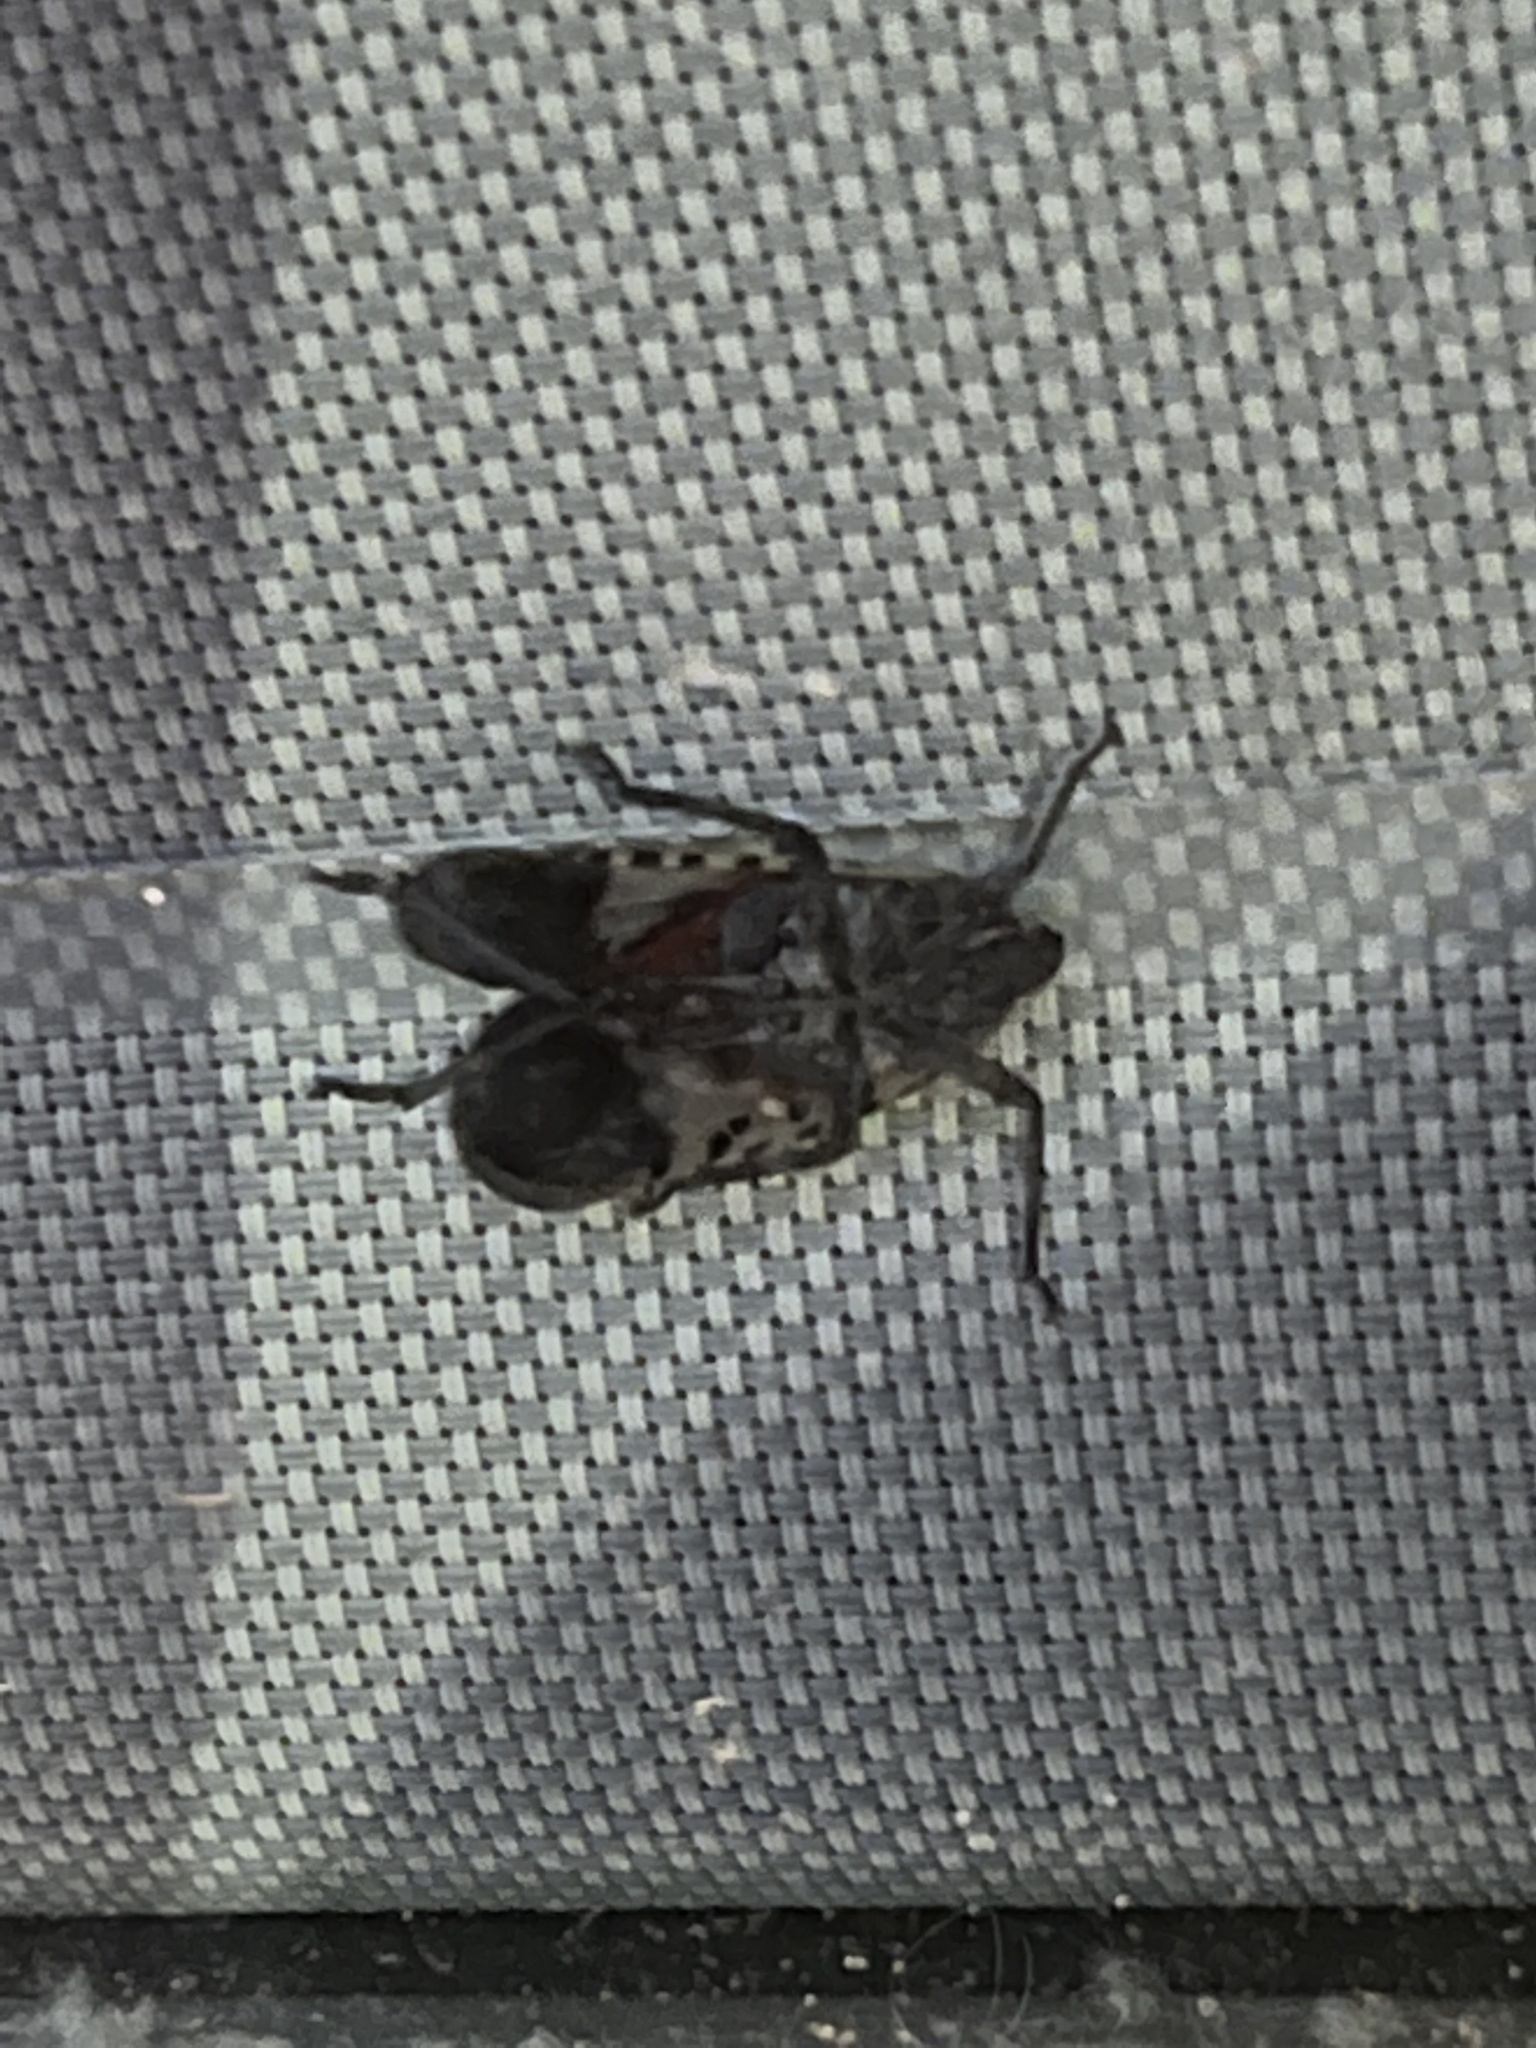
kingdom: Animalia
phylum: Arthropoda
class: Insecta
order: Hemiptera
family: Fulgoridae
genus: Lycorma
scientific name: Lycorma delicatula
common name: Spotted lanternfly
